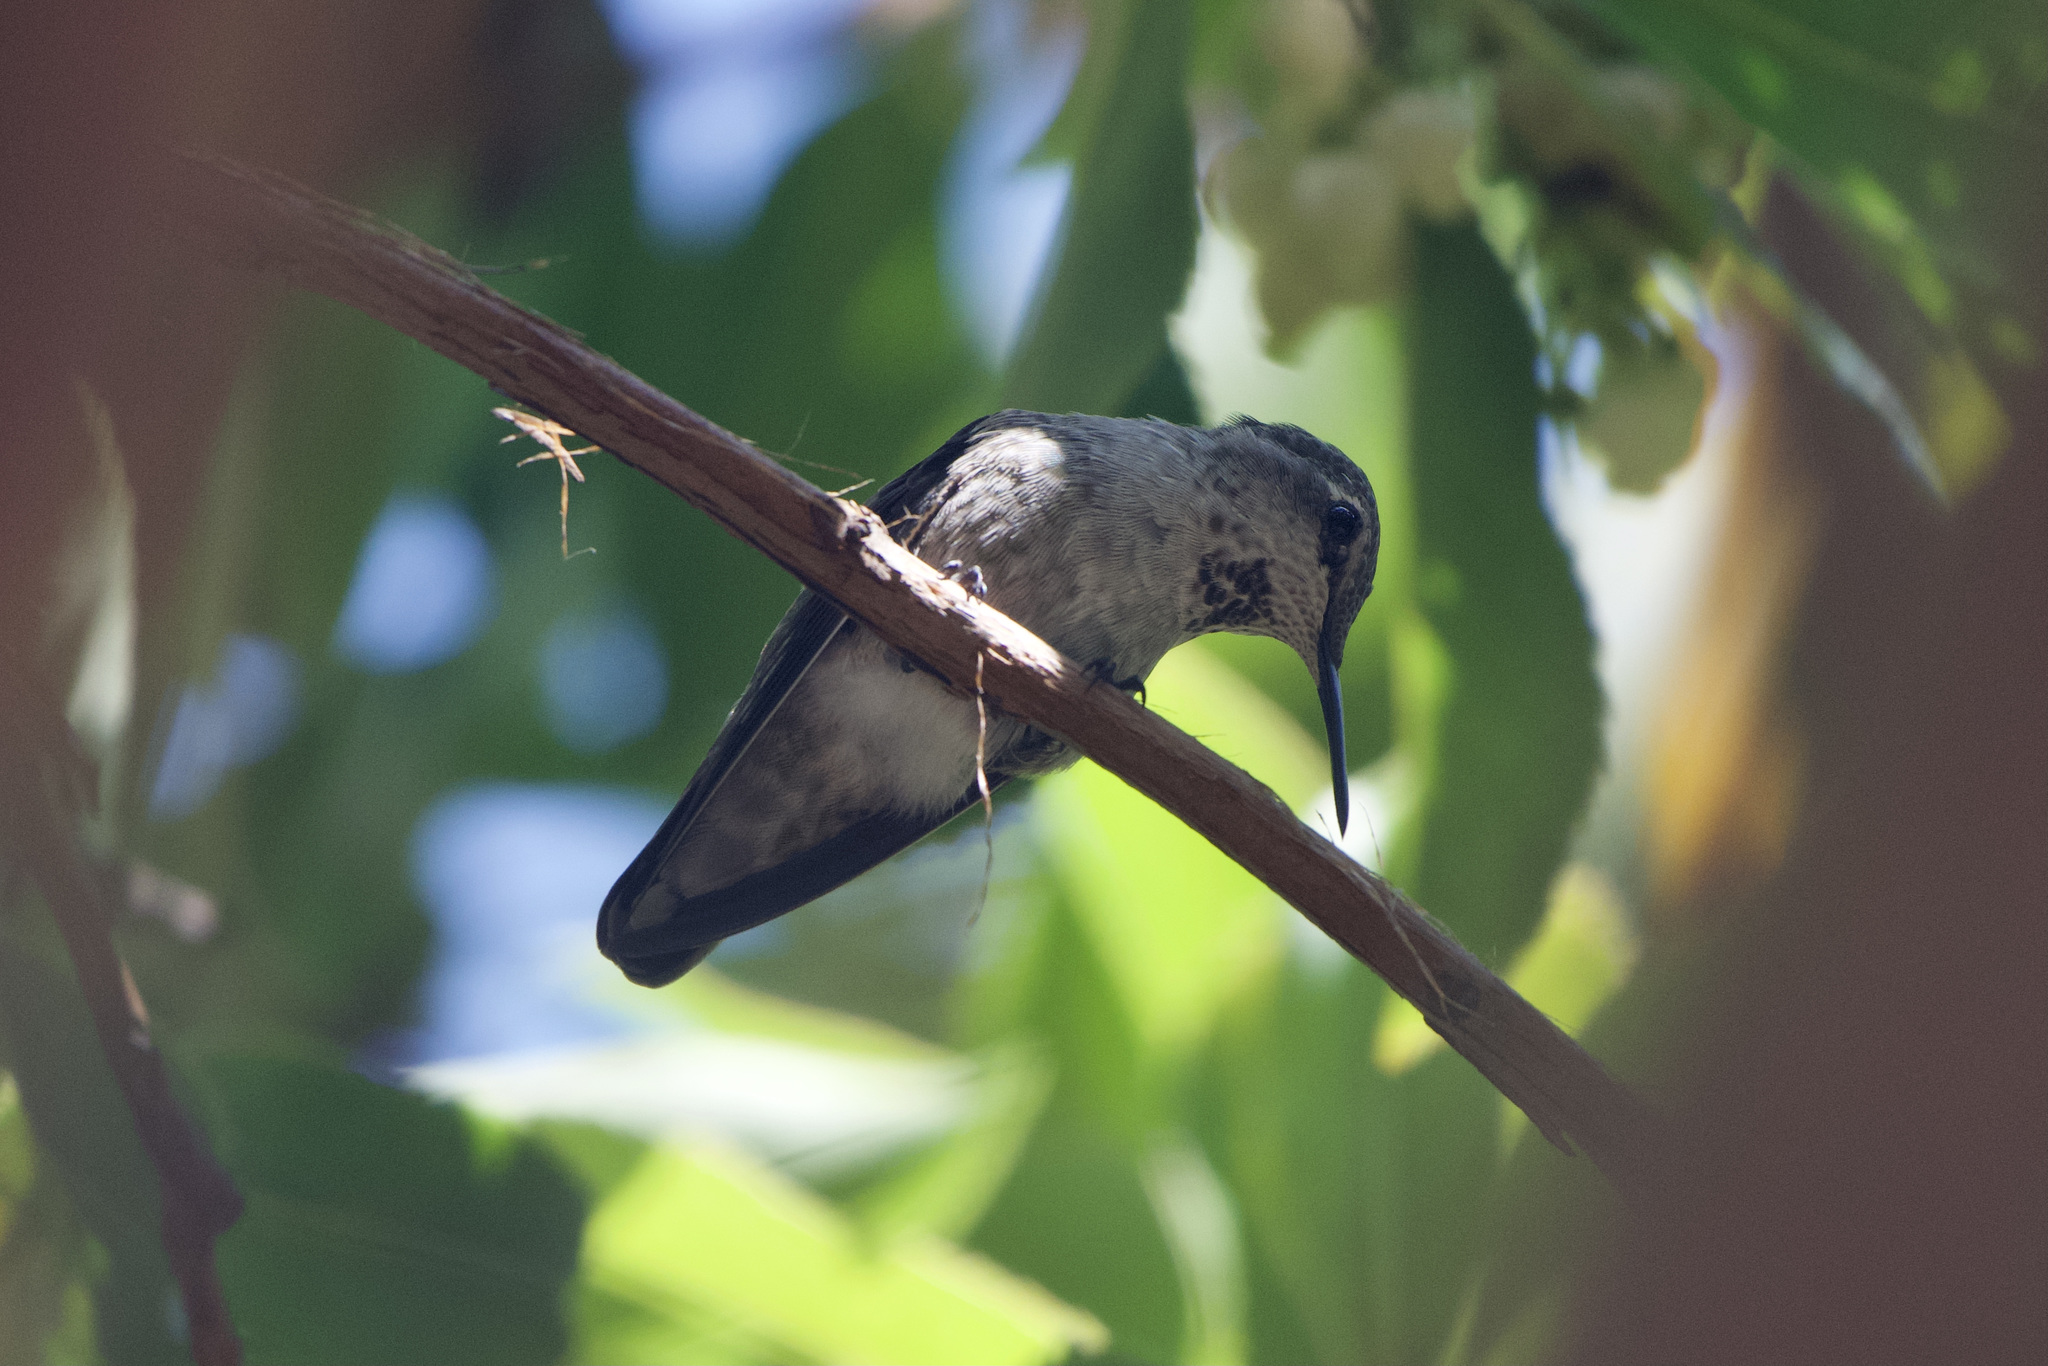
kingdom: Animalia
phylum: Chordata
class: Aves
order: Apodiformes
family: Trochilidae
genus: Calypte
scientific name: Calypte anna
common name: Anna's hummingbird
